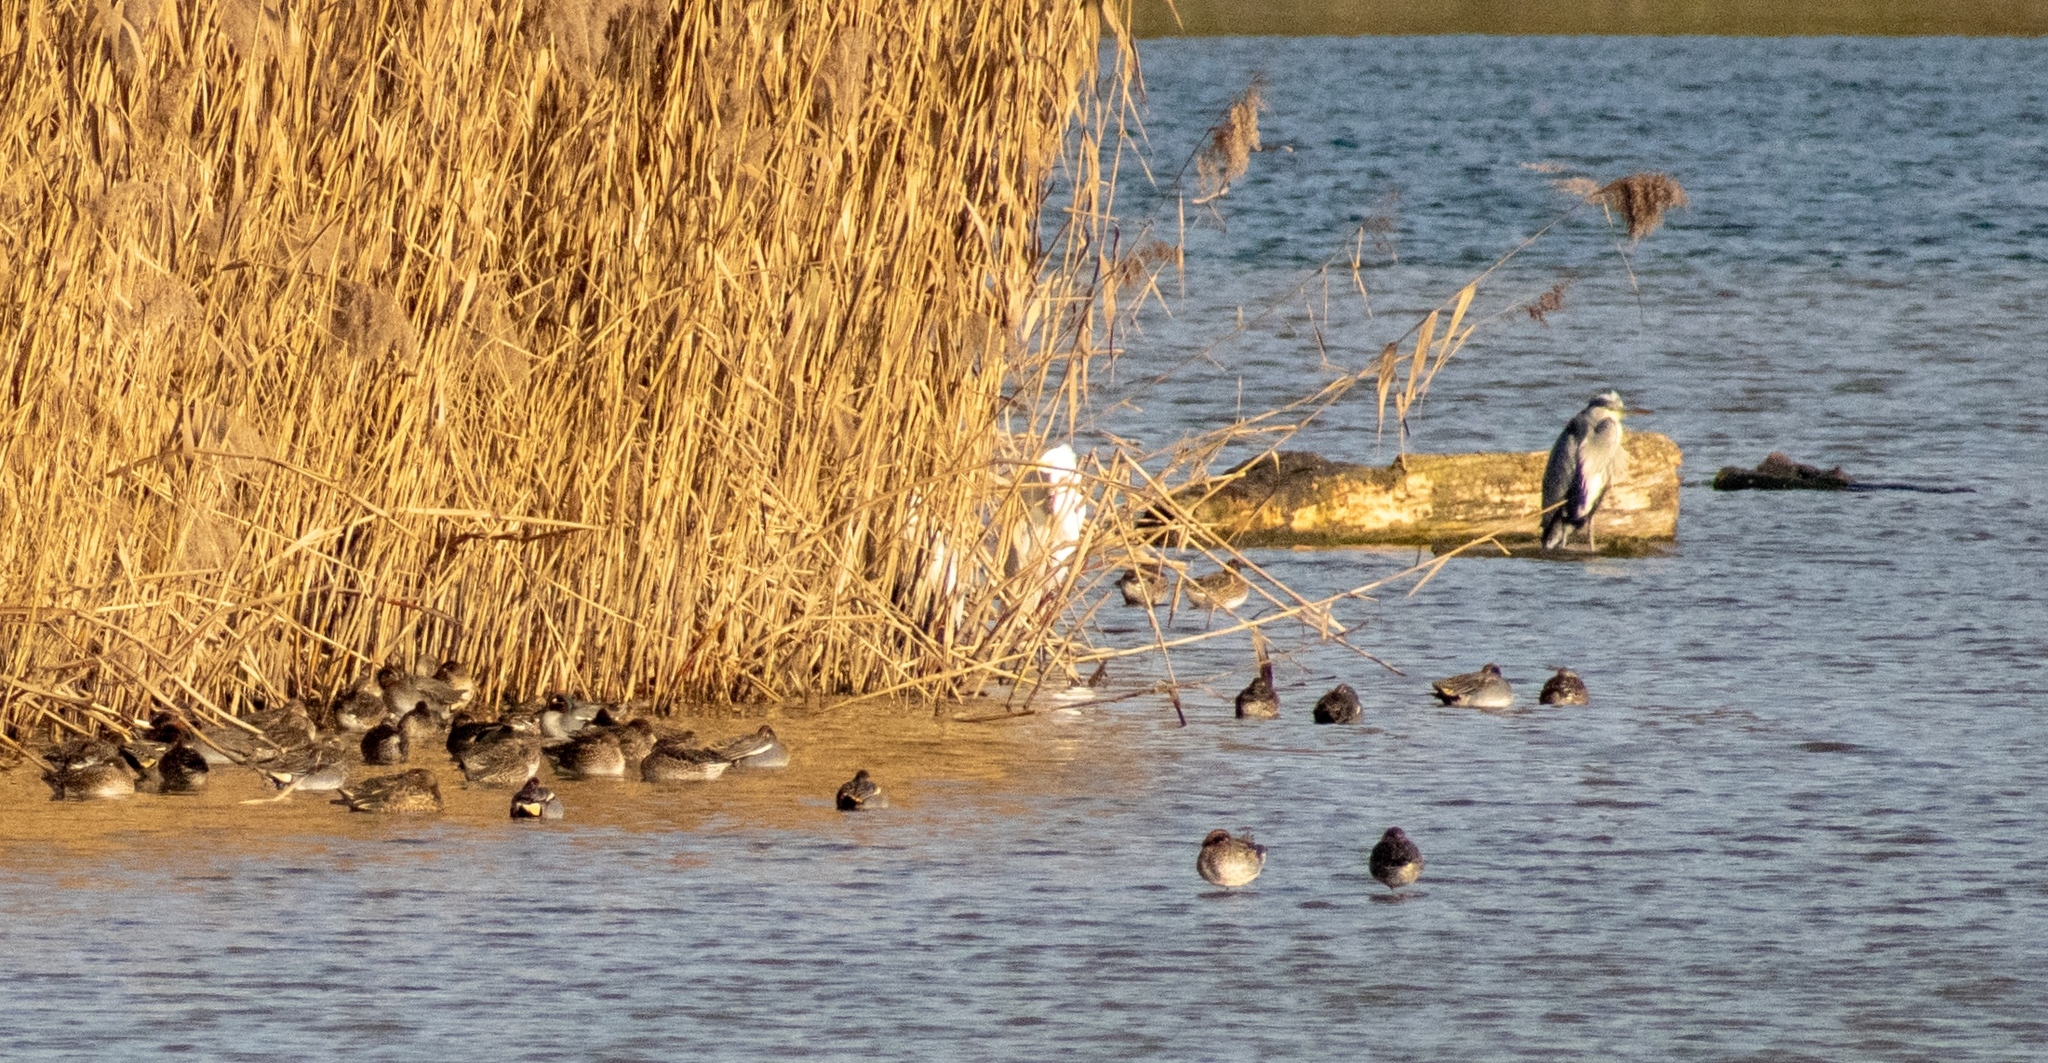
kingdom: Animalia
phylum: Chordata
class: Aves
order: Pelecaniformes
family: Ardeidae
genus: Ardea
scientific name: Ardea cinerea
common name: Grey heron
